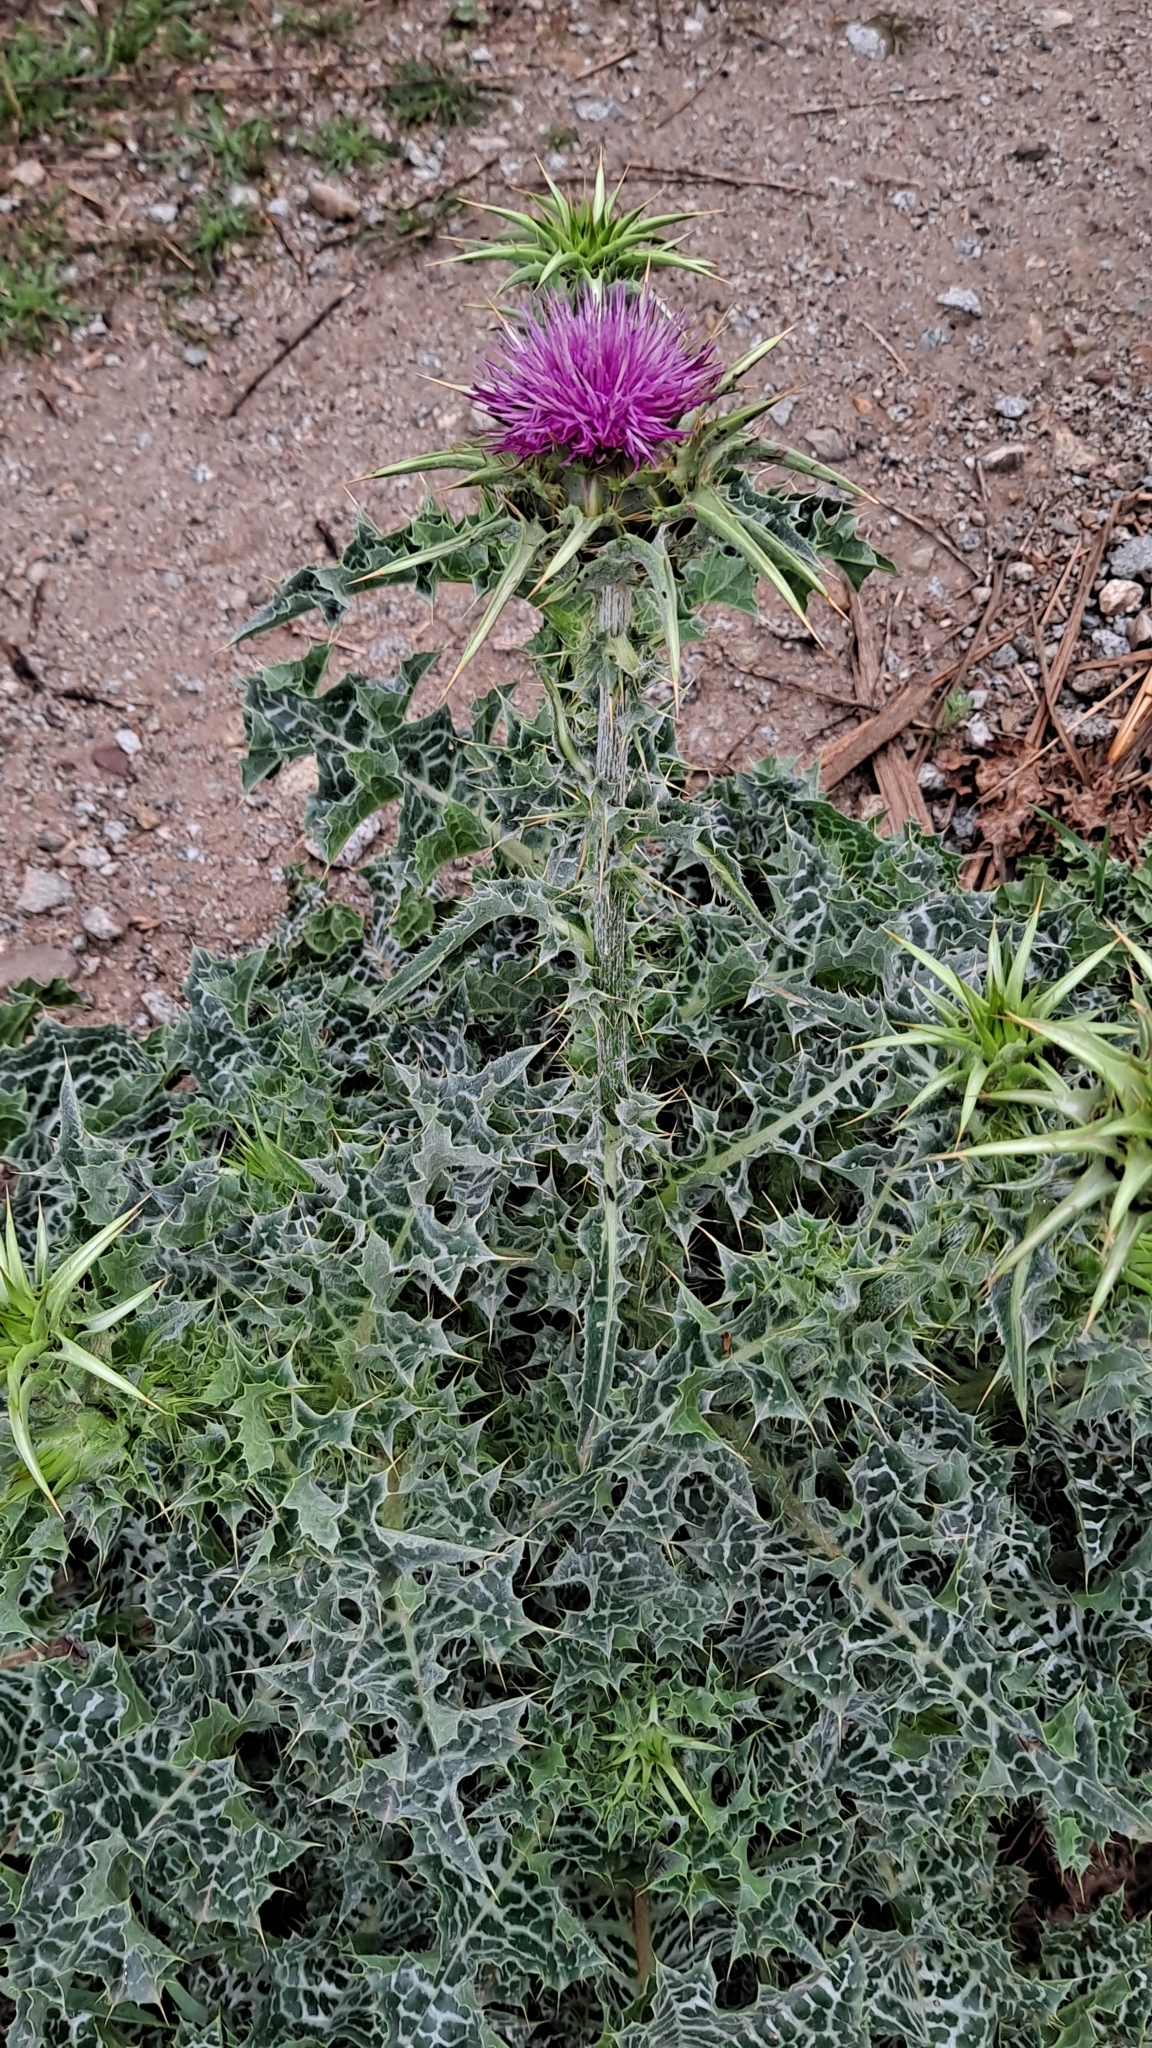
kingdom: Plantae
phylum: Tracheophyta
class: Magnoliopsida
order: Asterales
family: Asteraceae
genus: Silybum
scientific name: Silybum marianum
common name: Milk thistle
